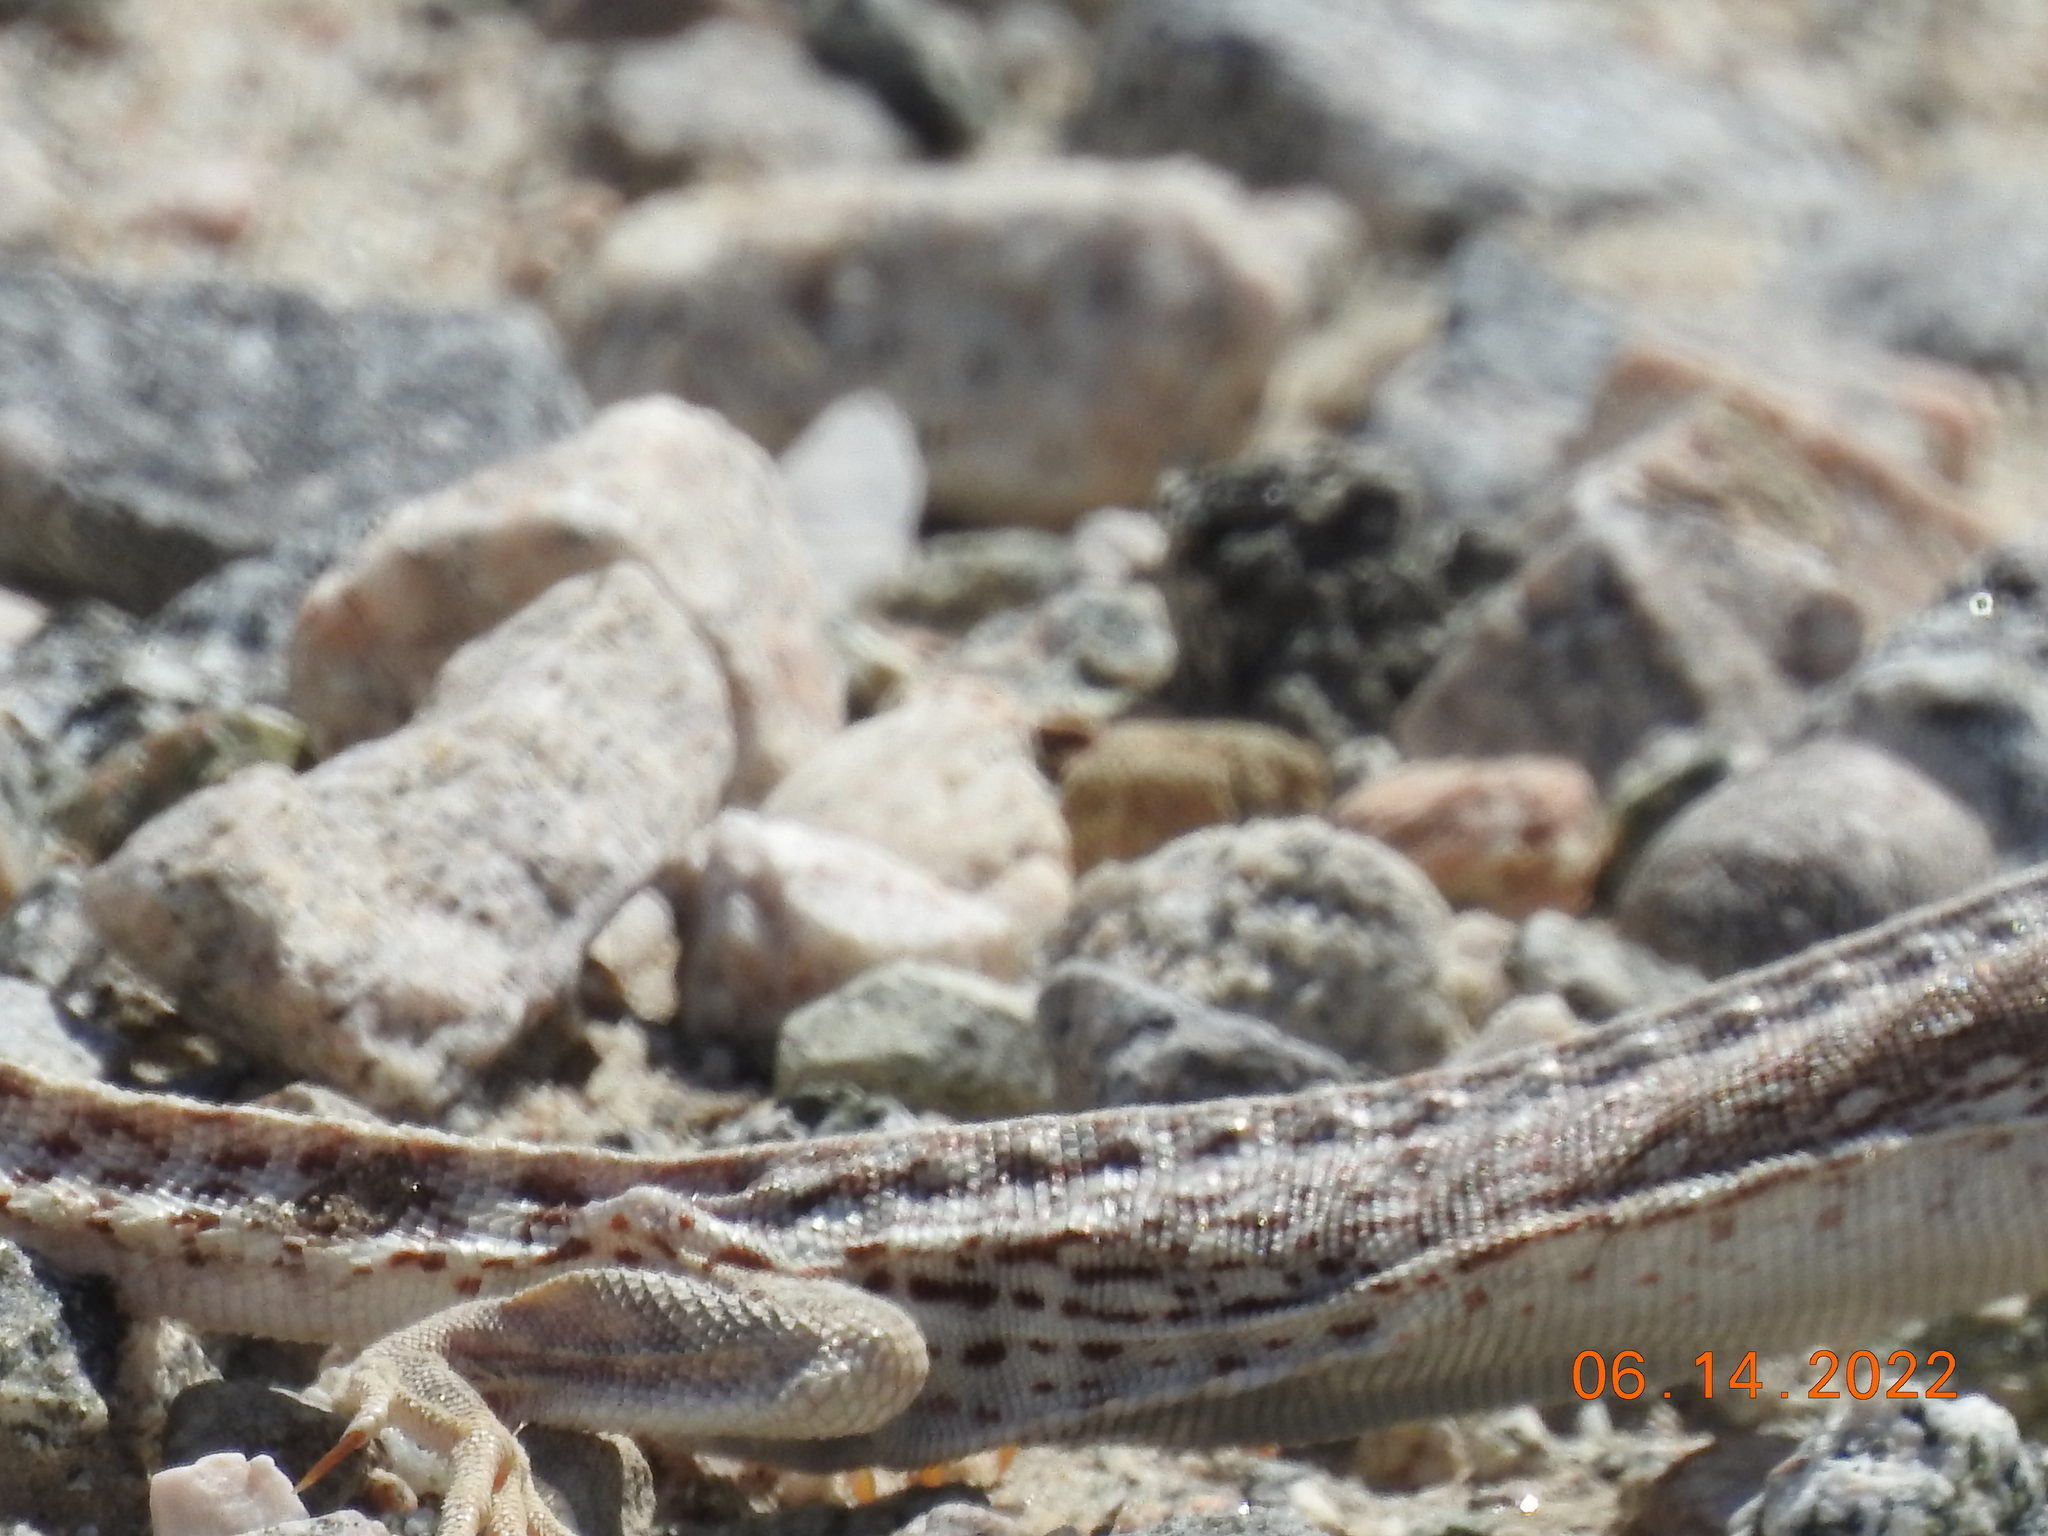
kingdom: Animalia
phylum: Chordata
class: Squamata
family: Iguanidae
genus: Dipsosaurus
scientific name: Dipsosaurus dorsalis
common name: Desert iguana
